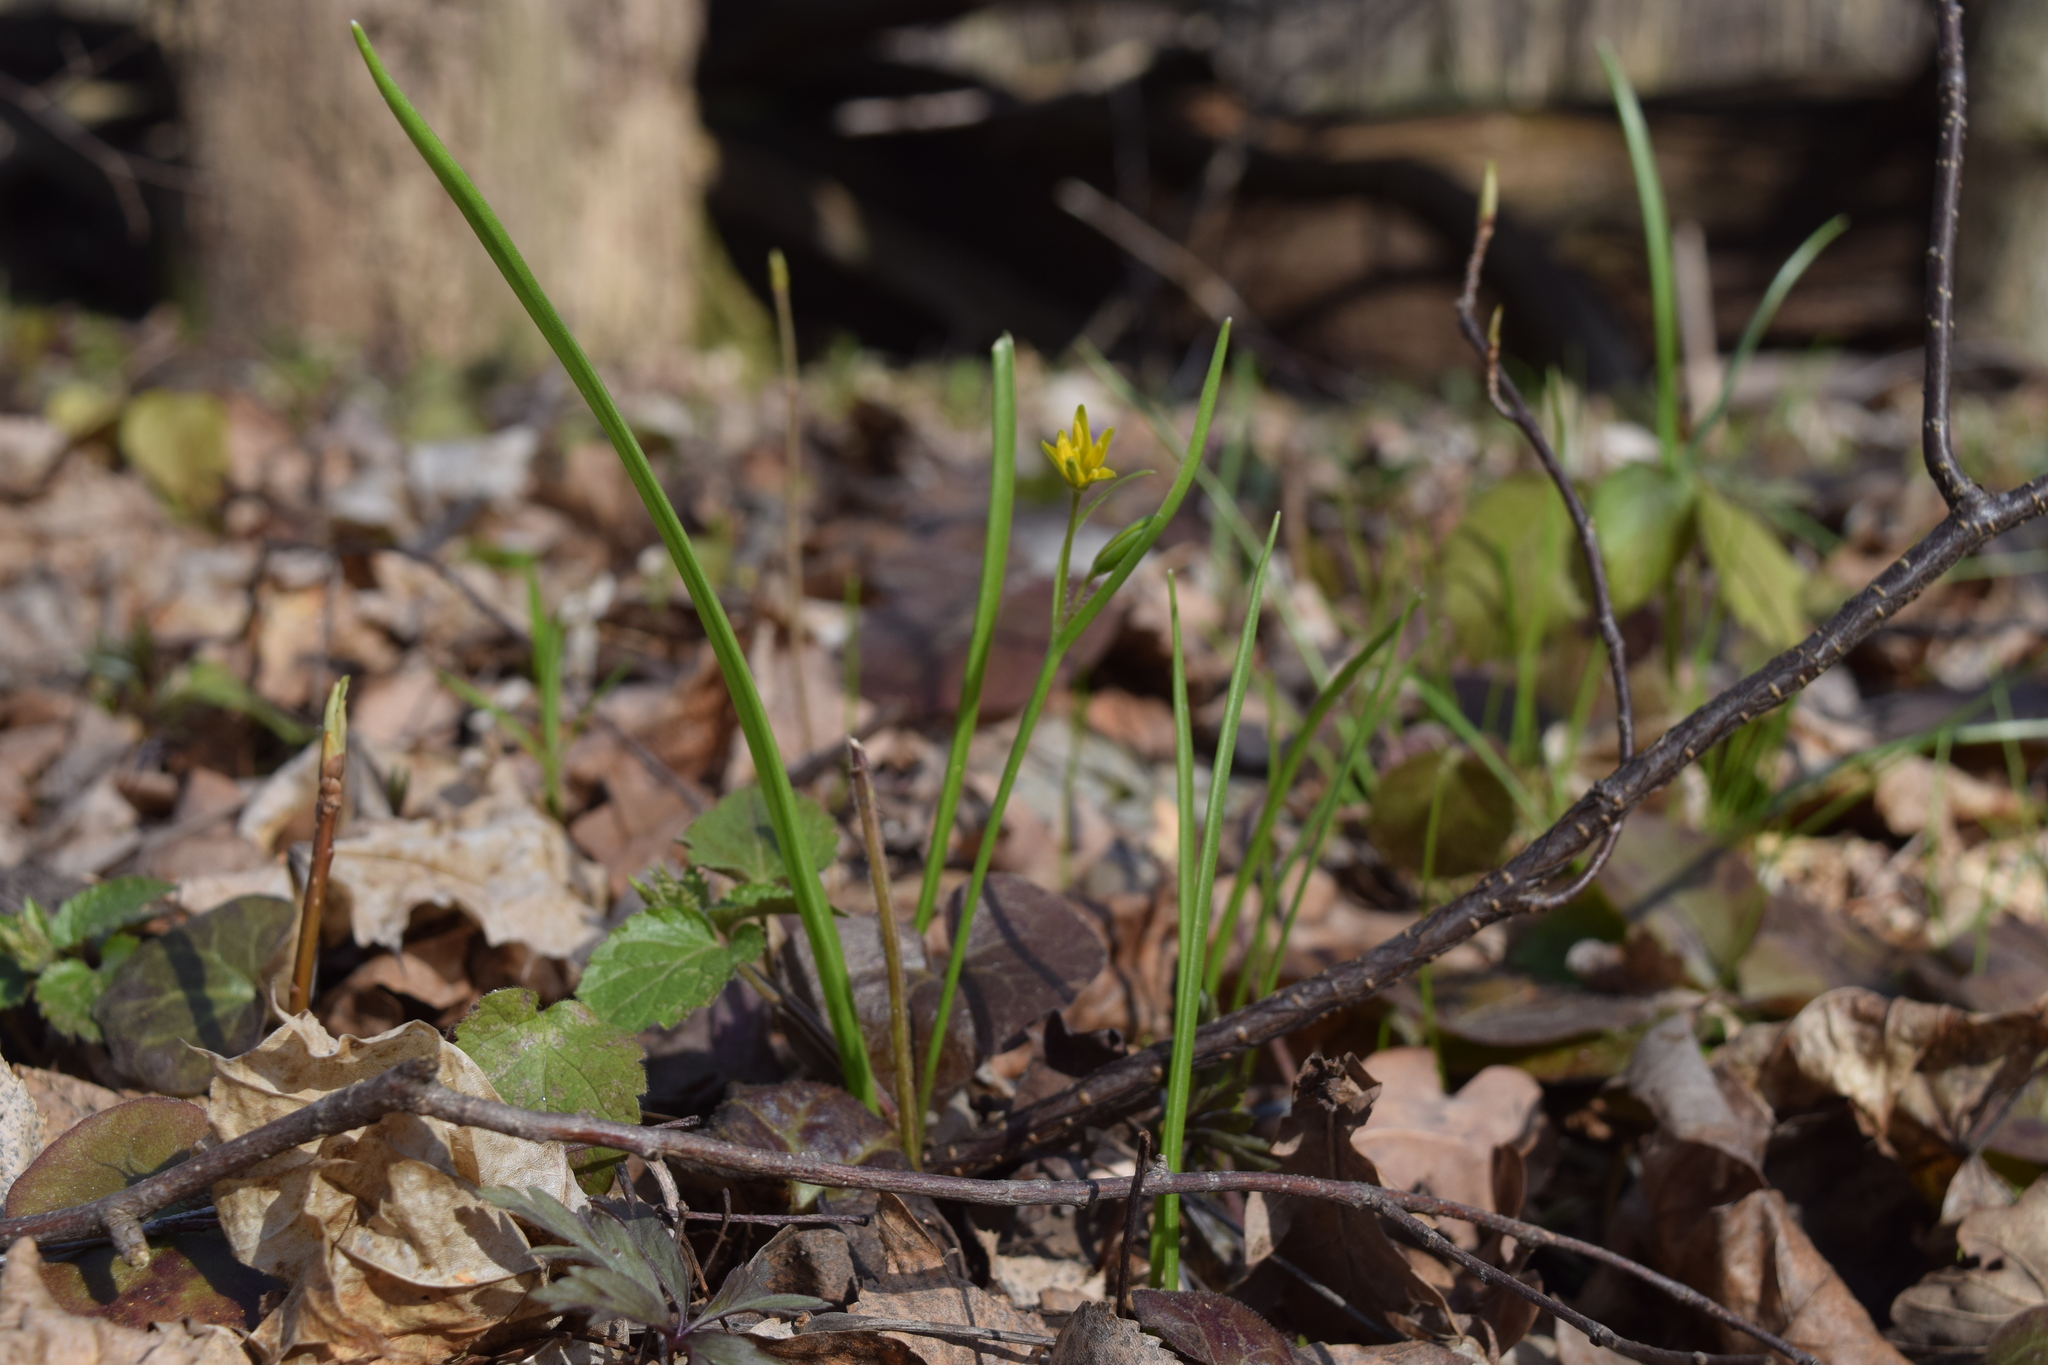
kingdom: Plantae
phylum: Tracheophyta
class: Liliopsida
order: Liliales
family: Liliaceae
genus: Gagea
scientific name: Gagea lutea
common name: Yellow star-of-bethlehem
